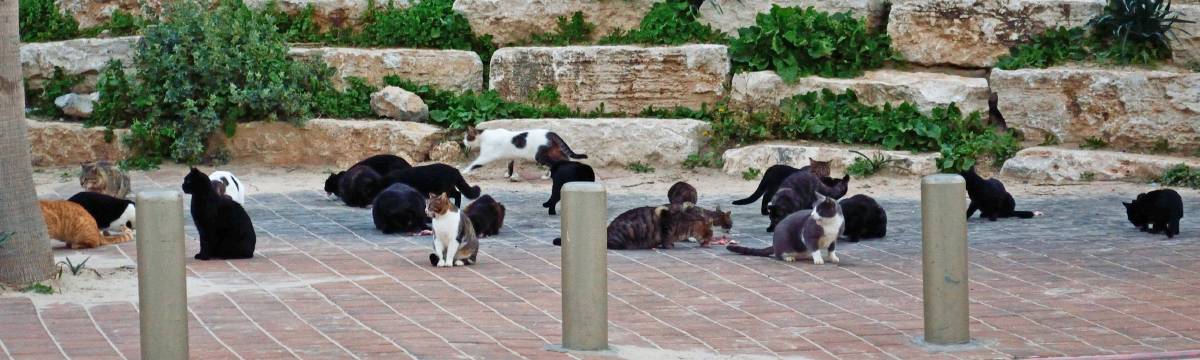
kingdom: Animalia
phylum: Chordata
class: Mammalia
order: Carnivora
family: Felidae
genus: Felis
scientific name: Felis catus
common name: Domestic cat
